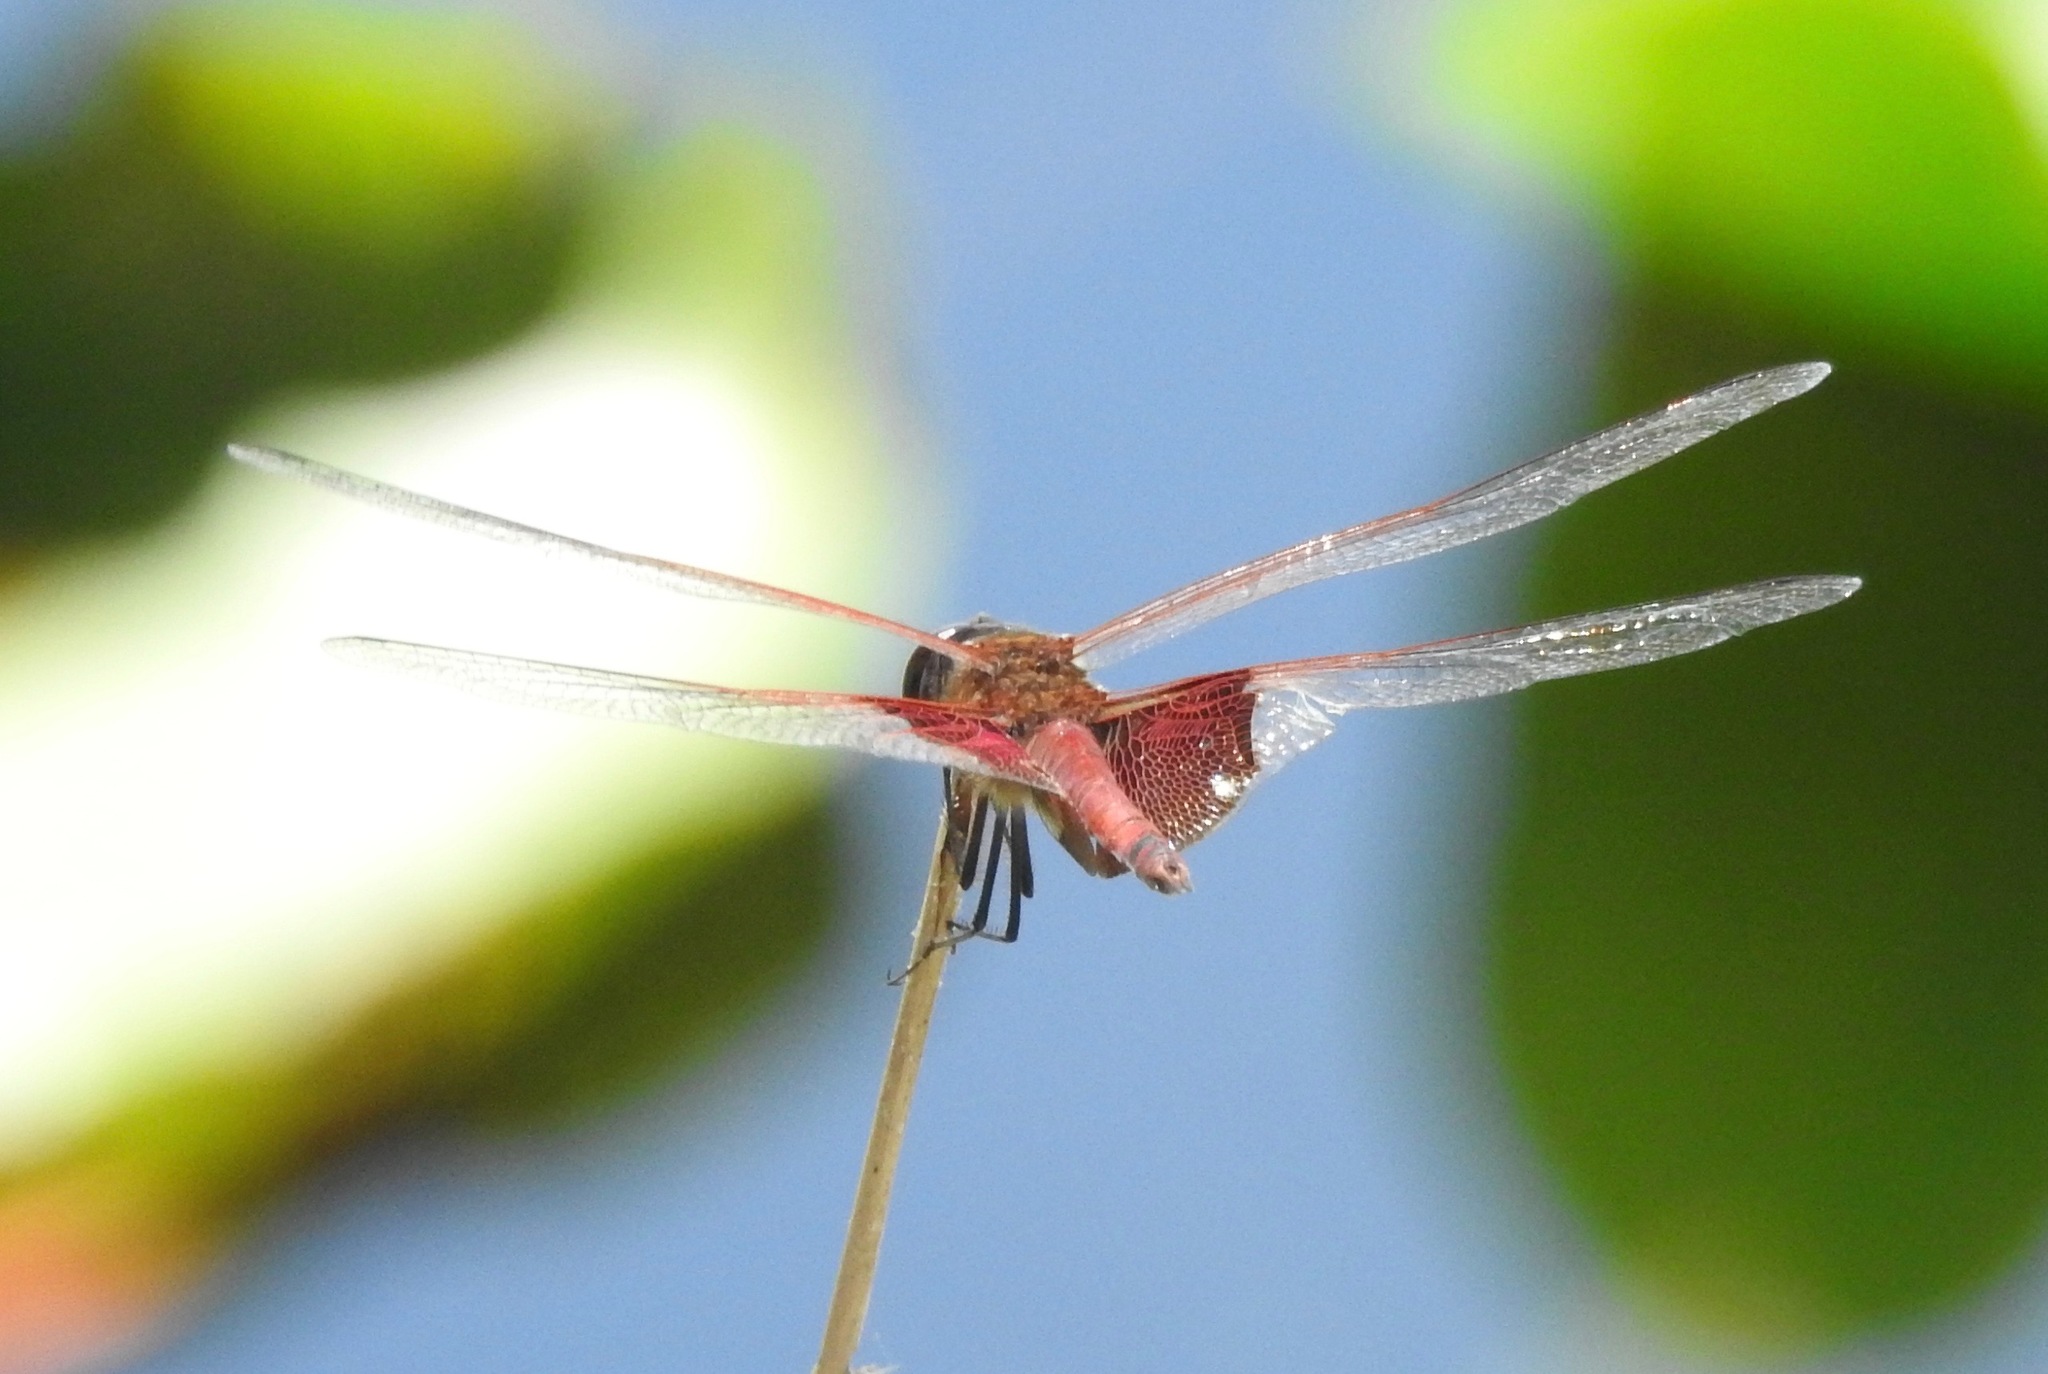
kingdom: Animalia
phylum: Arthropoda
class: Insecta
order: Odonata
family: Libellulidae
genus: Tramea
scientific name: Tramea carolina
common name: Carolina saddlebags
